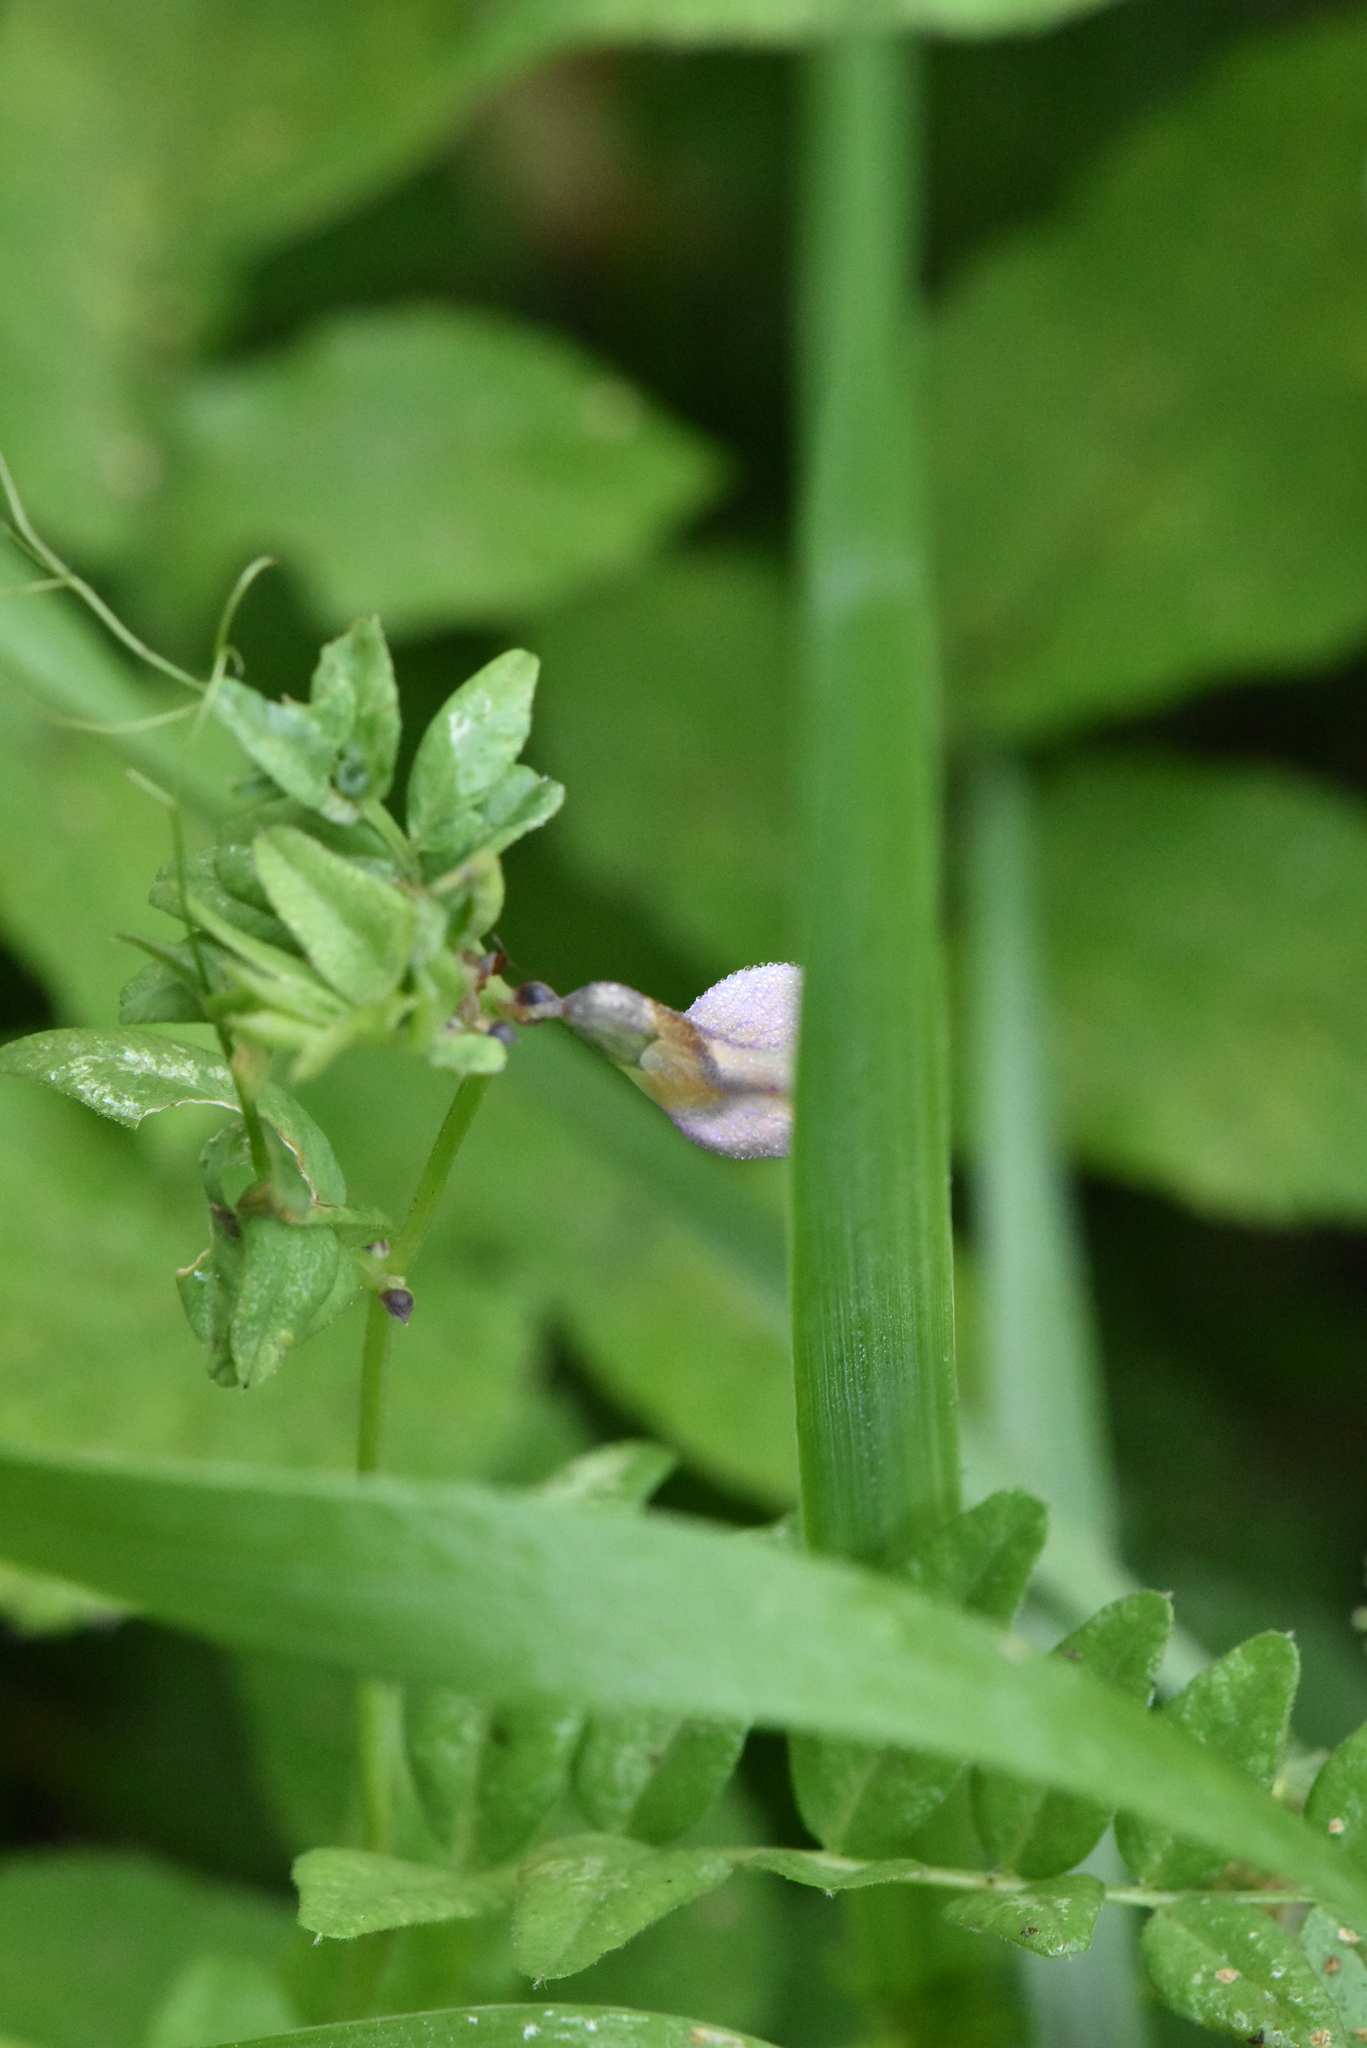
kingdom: Plantae
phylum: Tracheophyta
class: Magnoliopsida
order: Fabales
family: Fabaceae
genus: Vicia
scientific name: Vicia sepium
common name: Bush vetch
